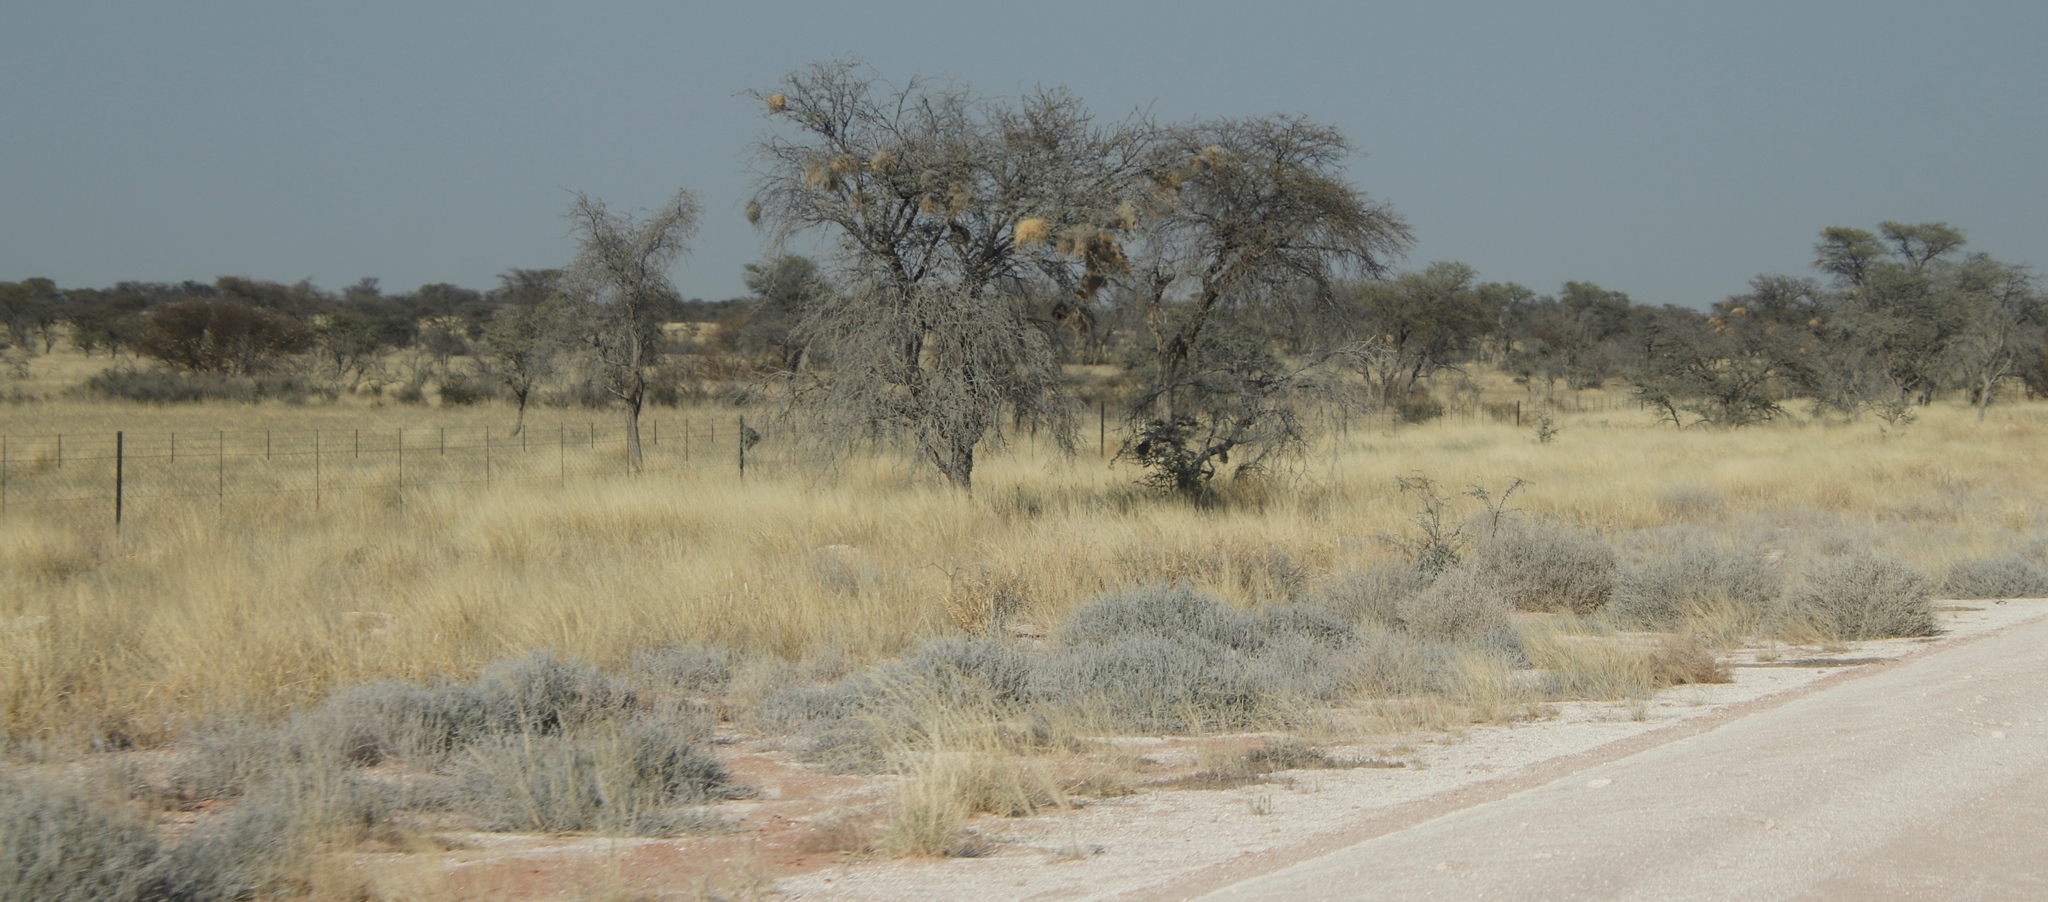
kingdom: Animalia
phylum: Chordata
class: Aves
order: Passeriformes
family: Passeridae
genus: Plocepasser
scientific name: Plocepasser mahali
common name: White-browed sparrow-weaver
